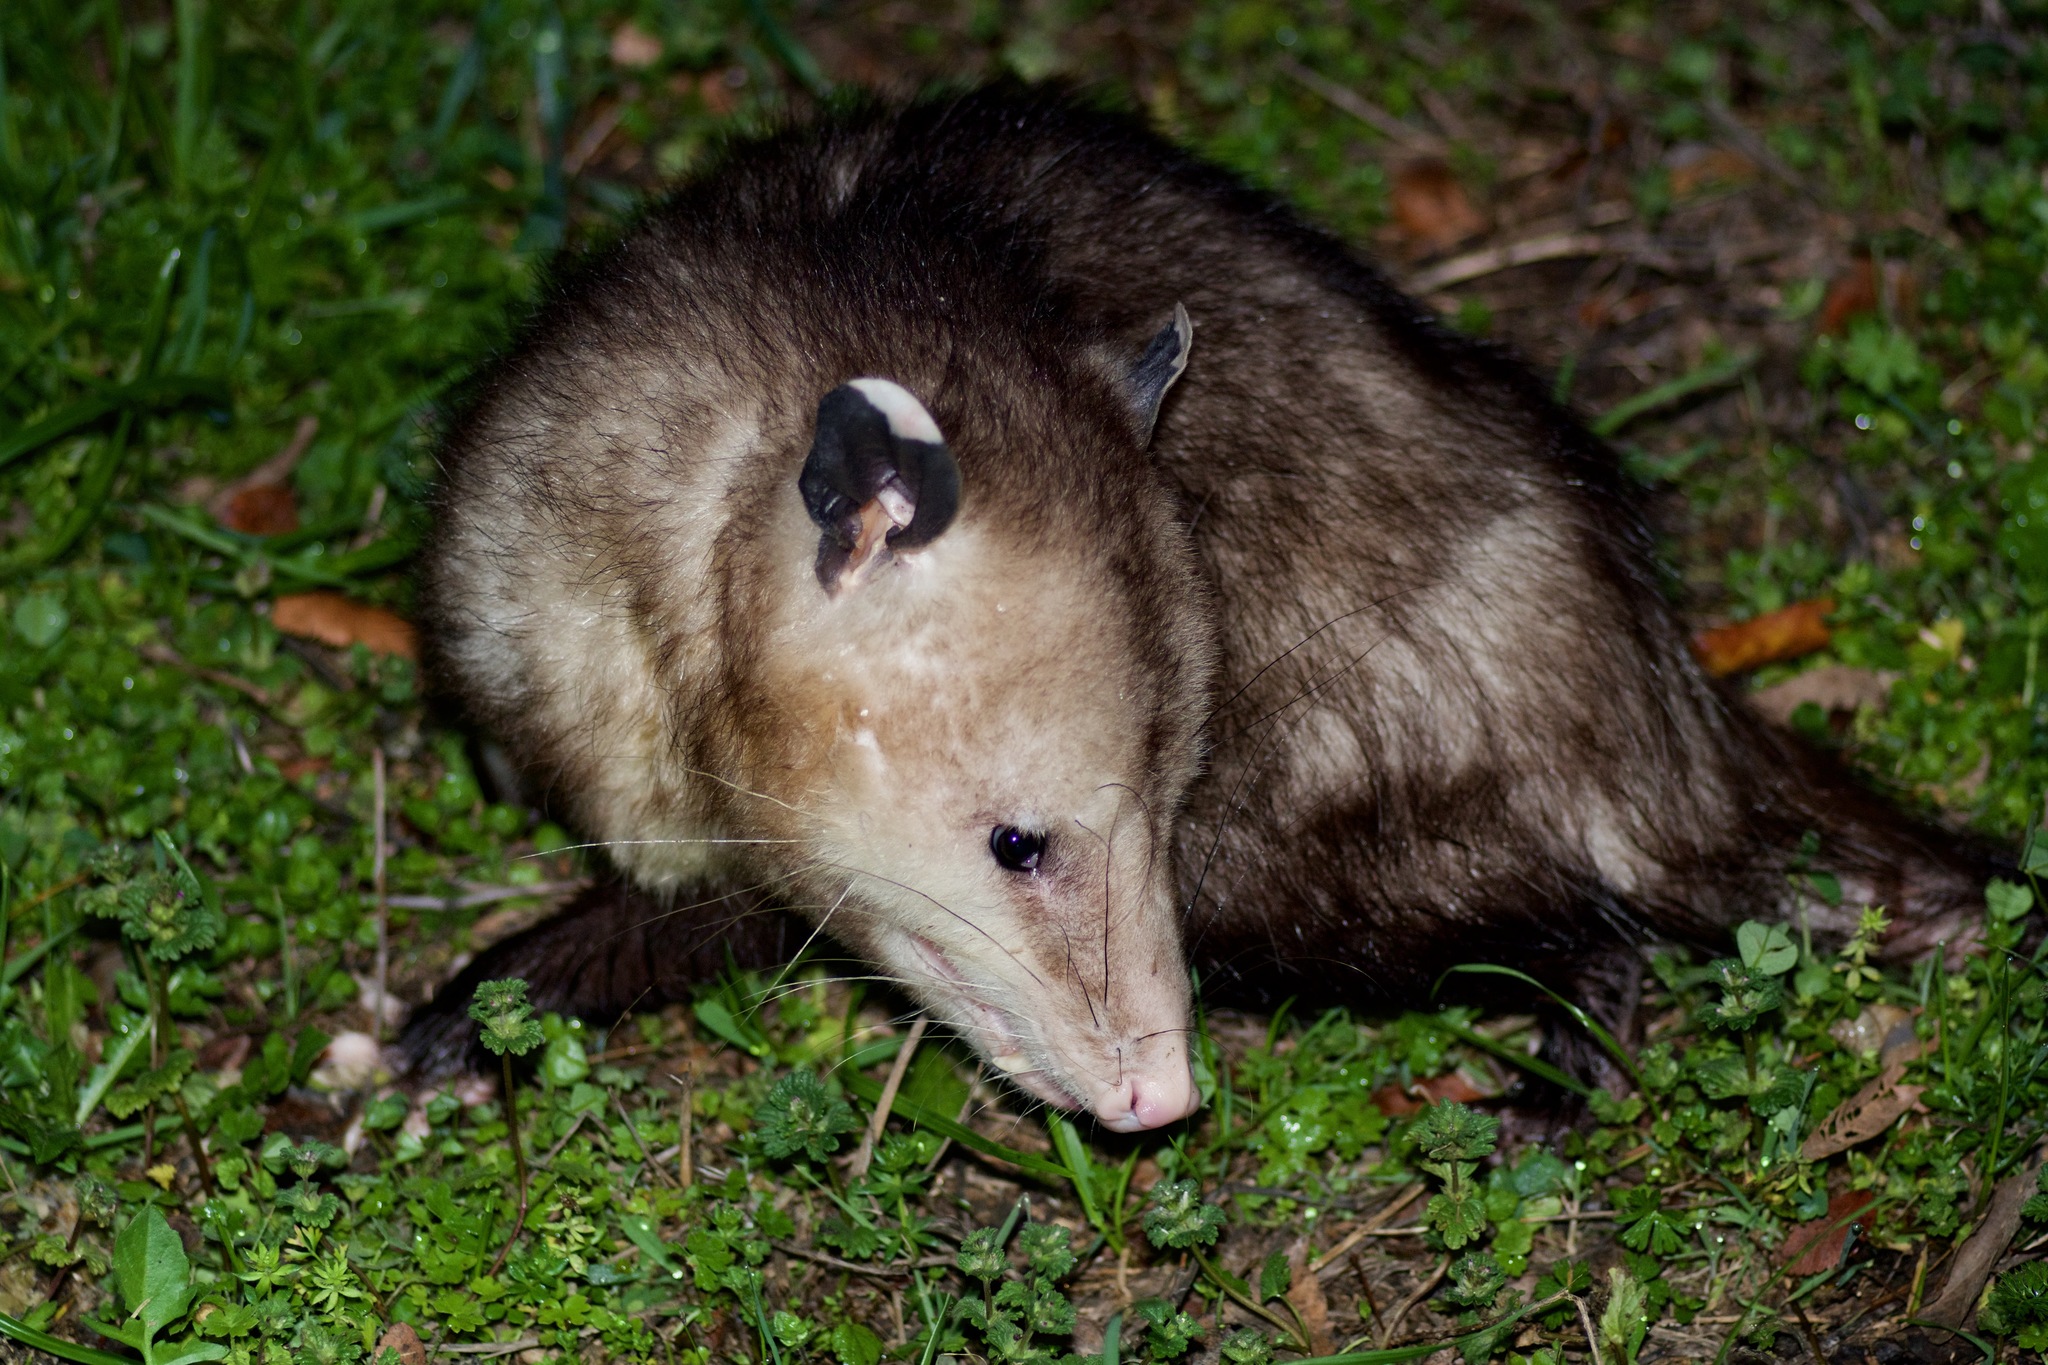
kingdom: Animalia
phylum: Chordata
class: Mammalia
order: Didelphimorphia
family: Didelphidae
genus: Didelphis
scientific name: Didelphis virginiana
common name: Virginia opossum
